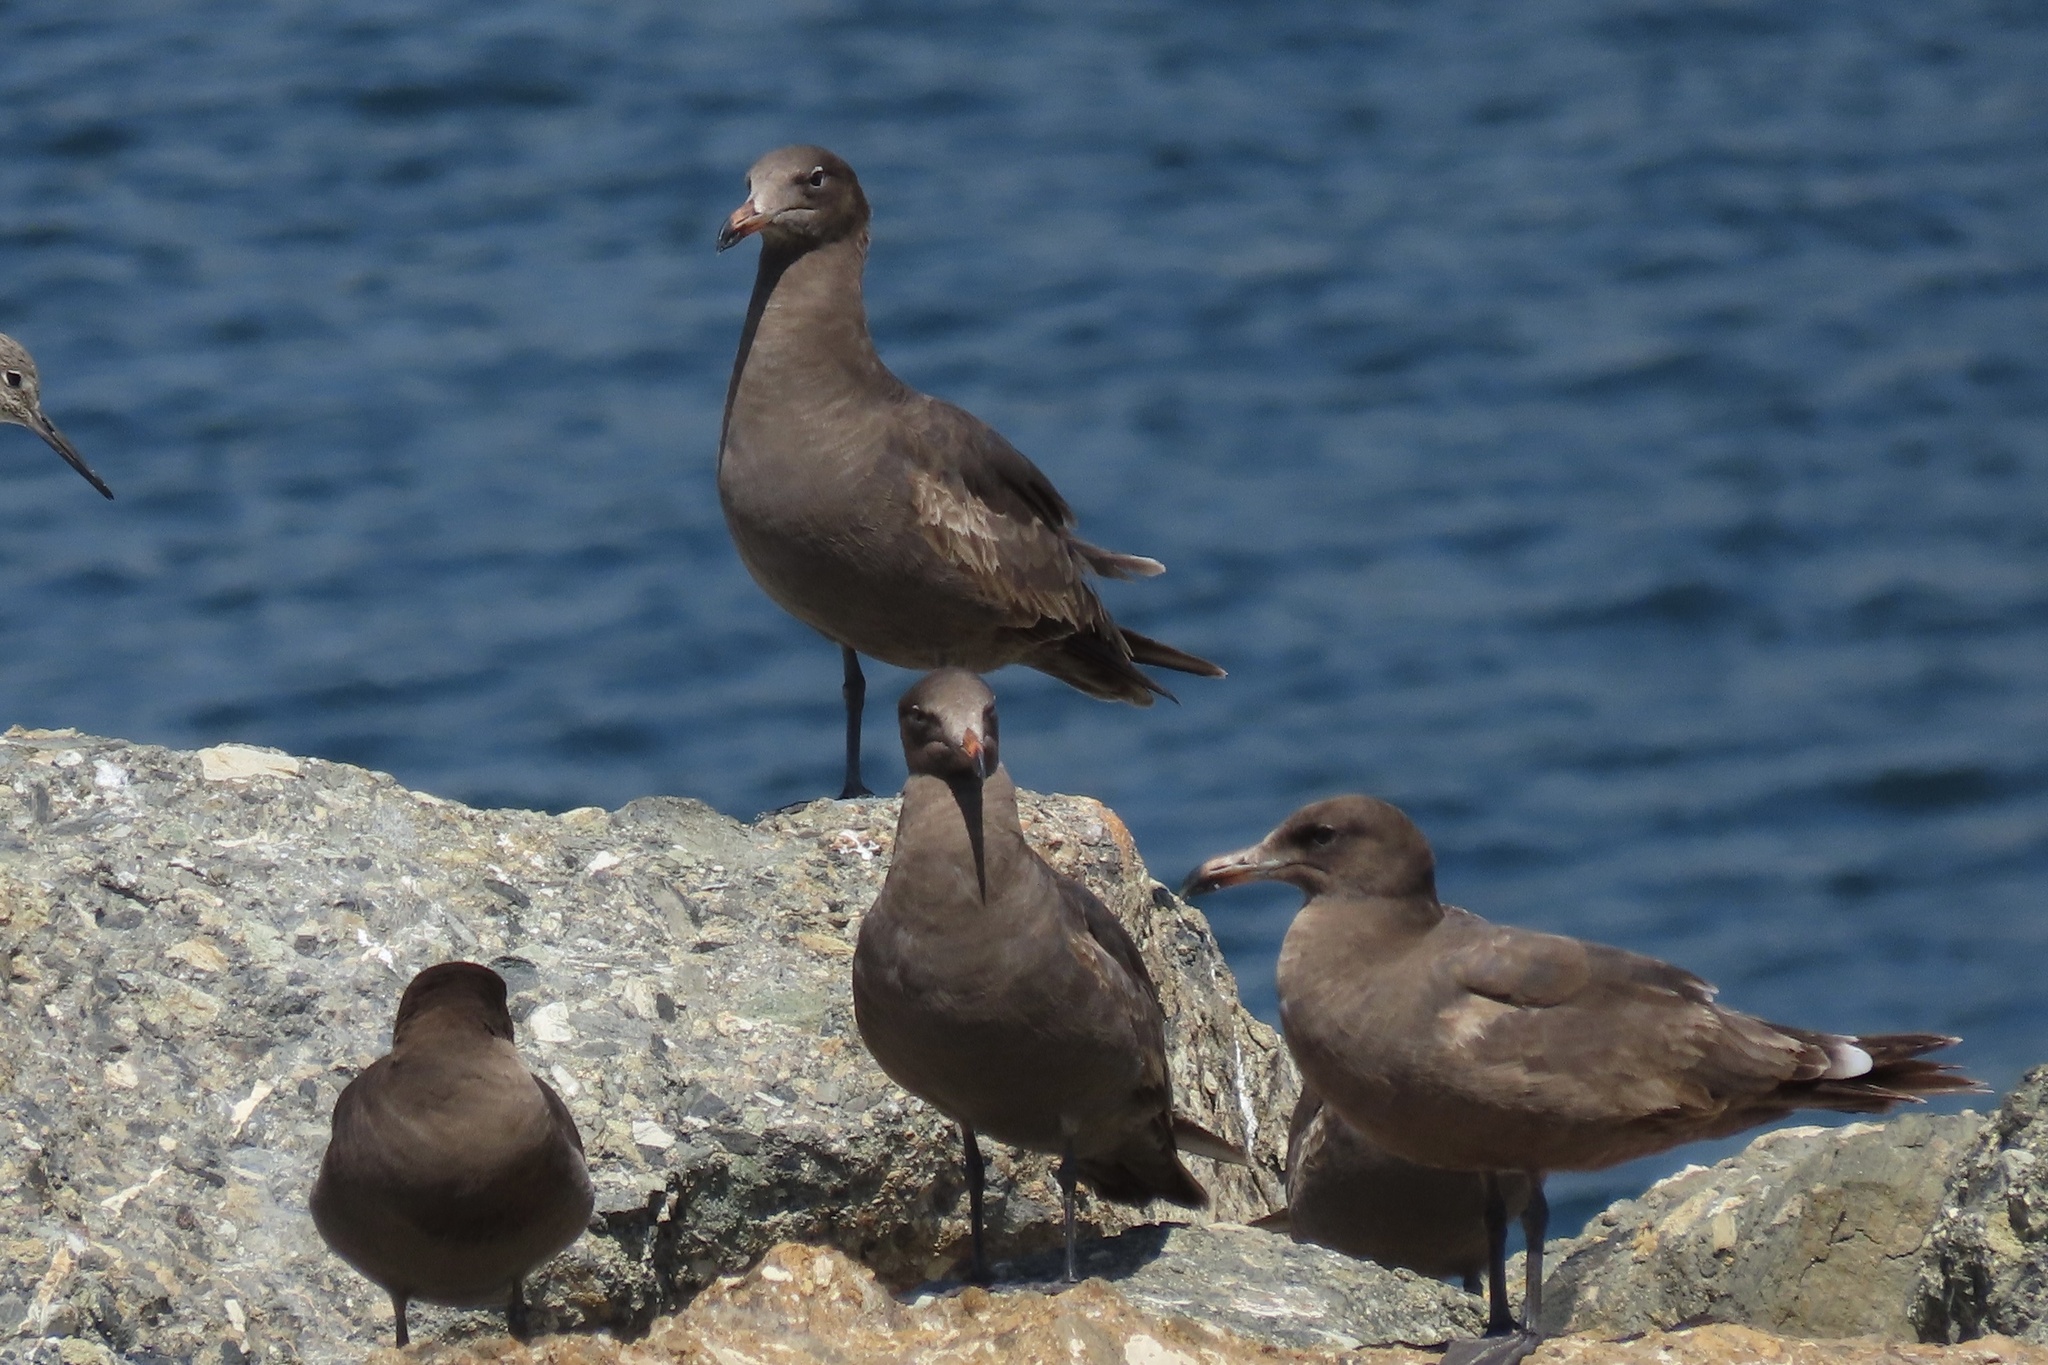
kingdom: Animalia
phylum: Chordata
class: Aves
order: Charadriiformes
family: Laridae
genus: Larus
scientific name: Larus heermanni
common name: Heermann's gull
